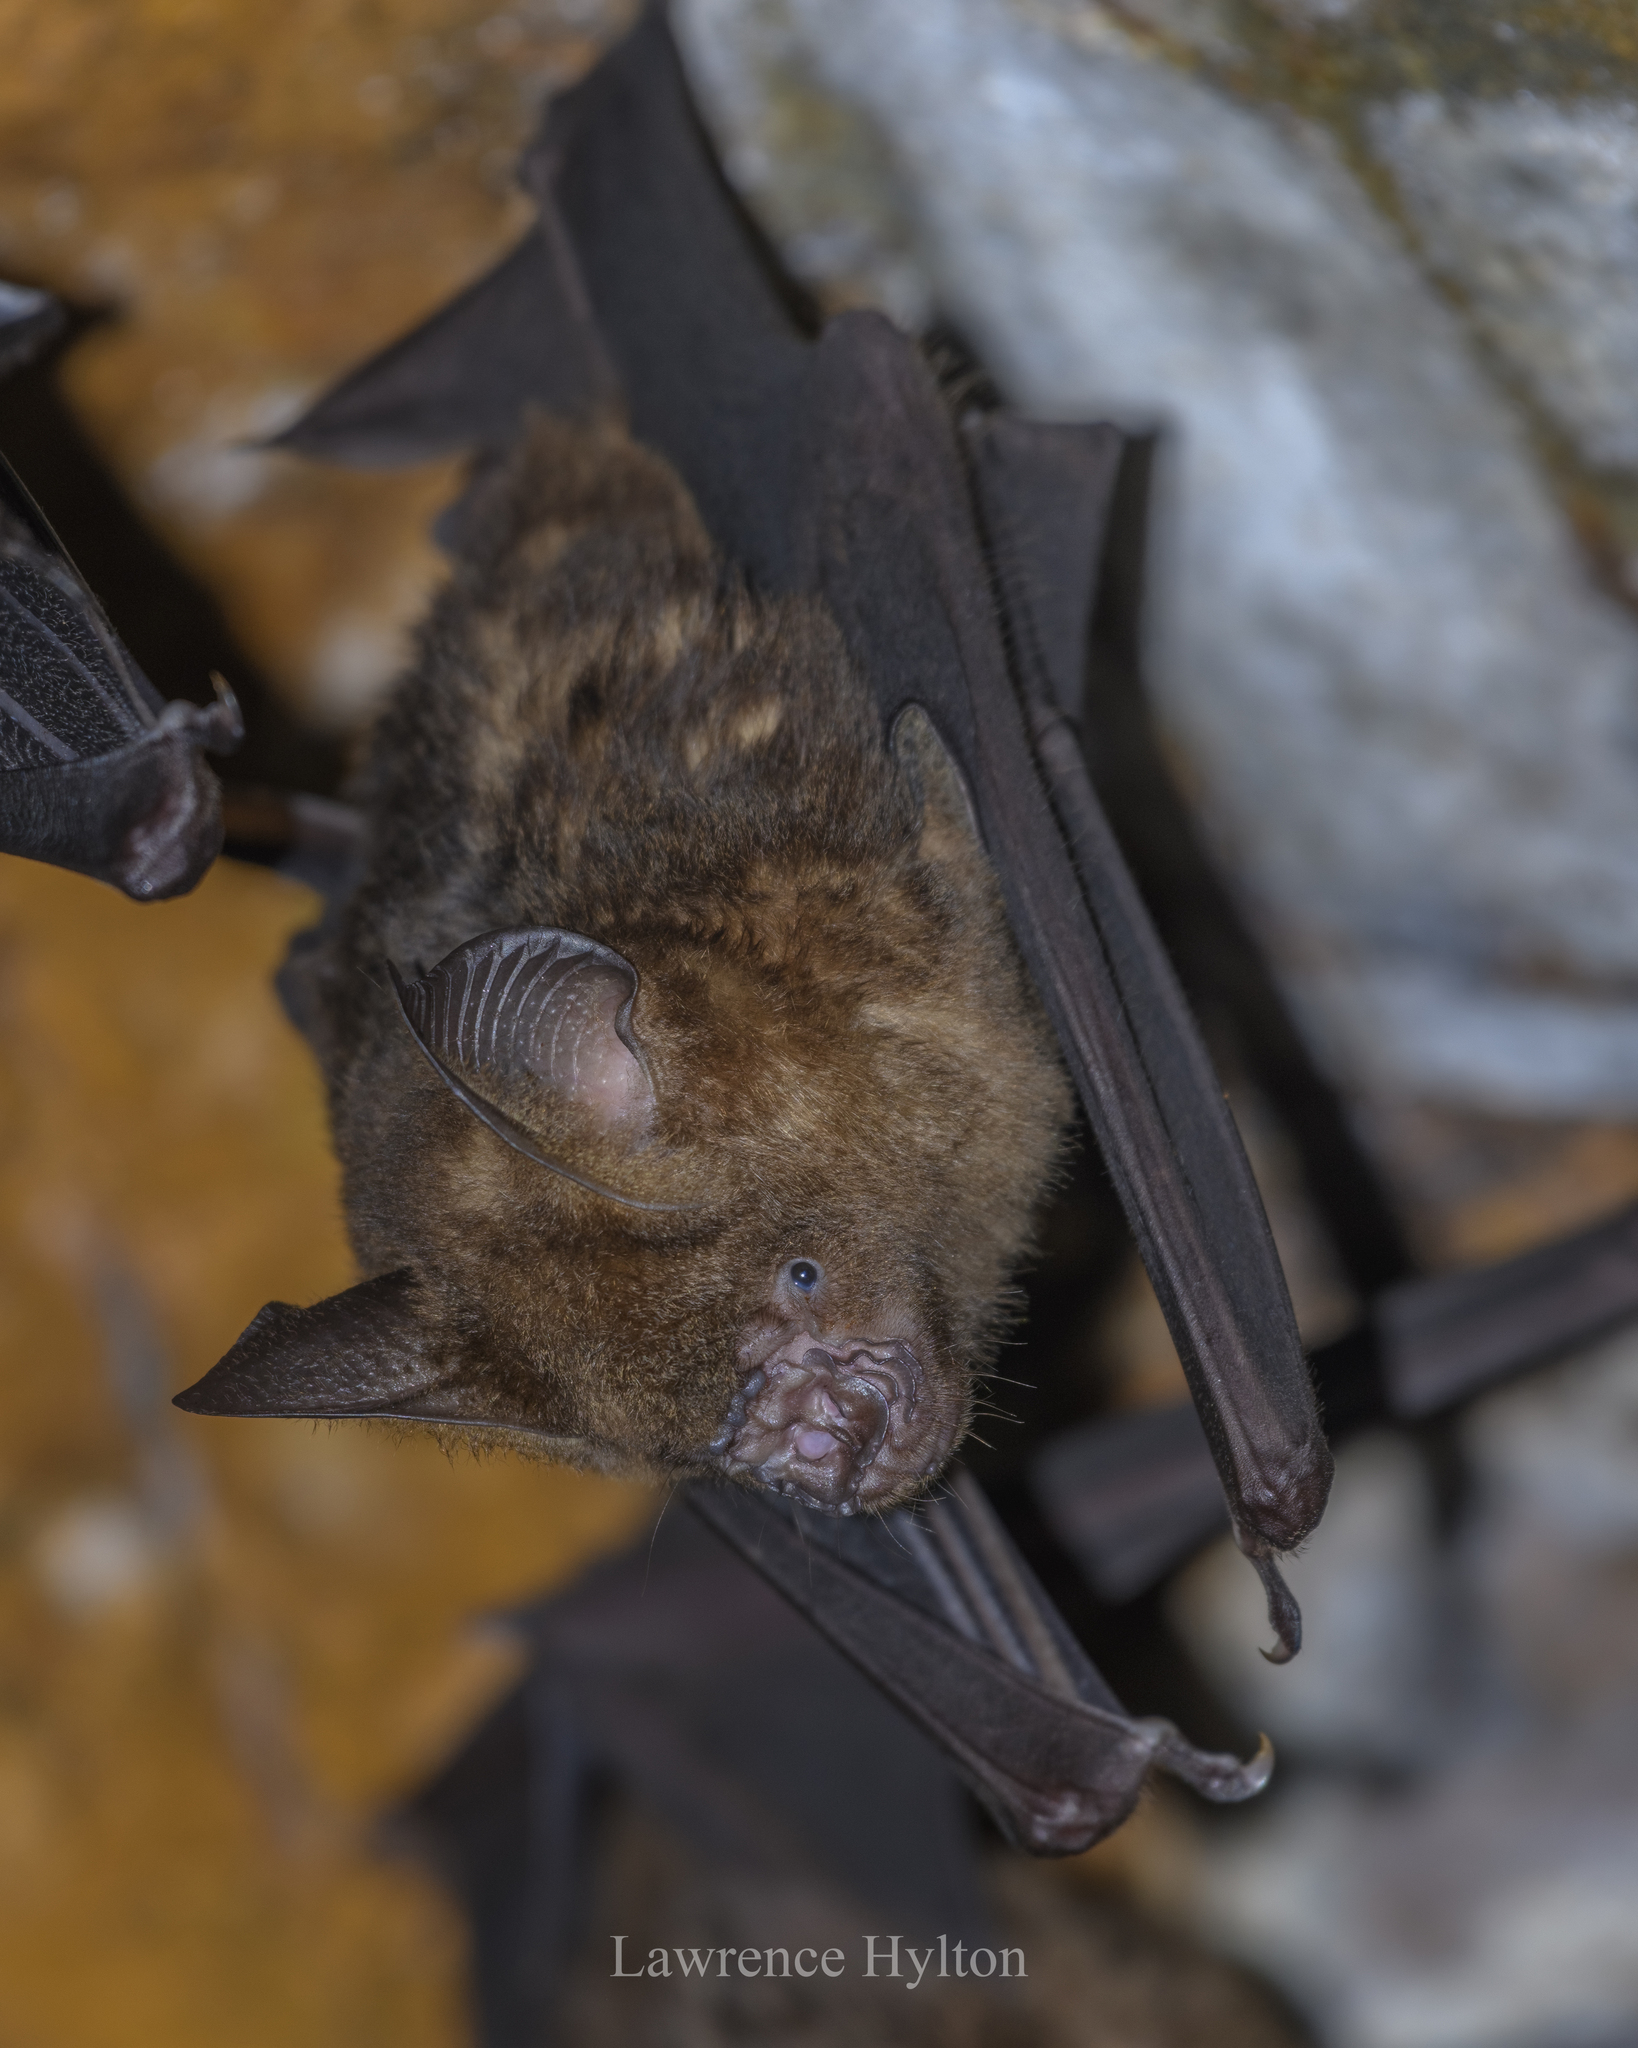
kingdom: Animalia
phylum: Chordata
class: Mammalia
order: Chiroptera
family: Hipposideridae
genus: Hipposideros
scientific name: Hipposideros armiger
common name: Great leaf-nosed bat
